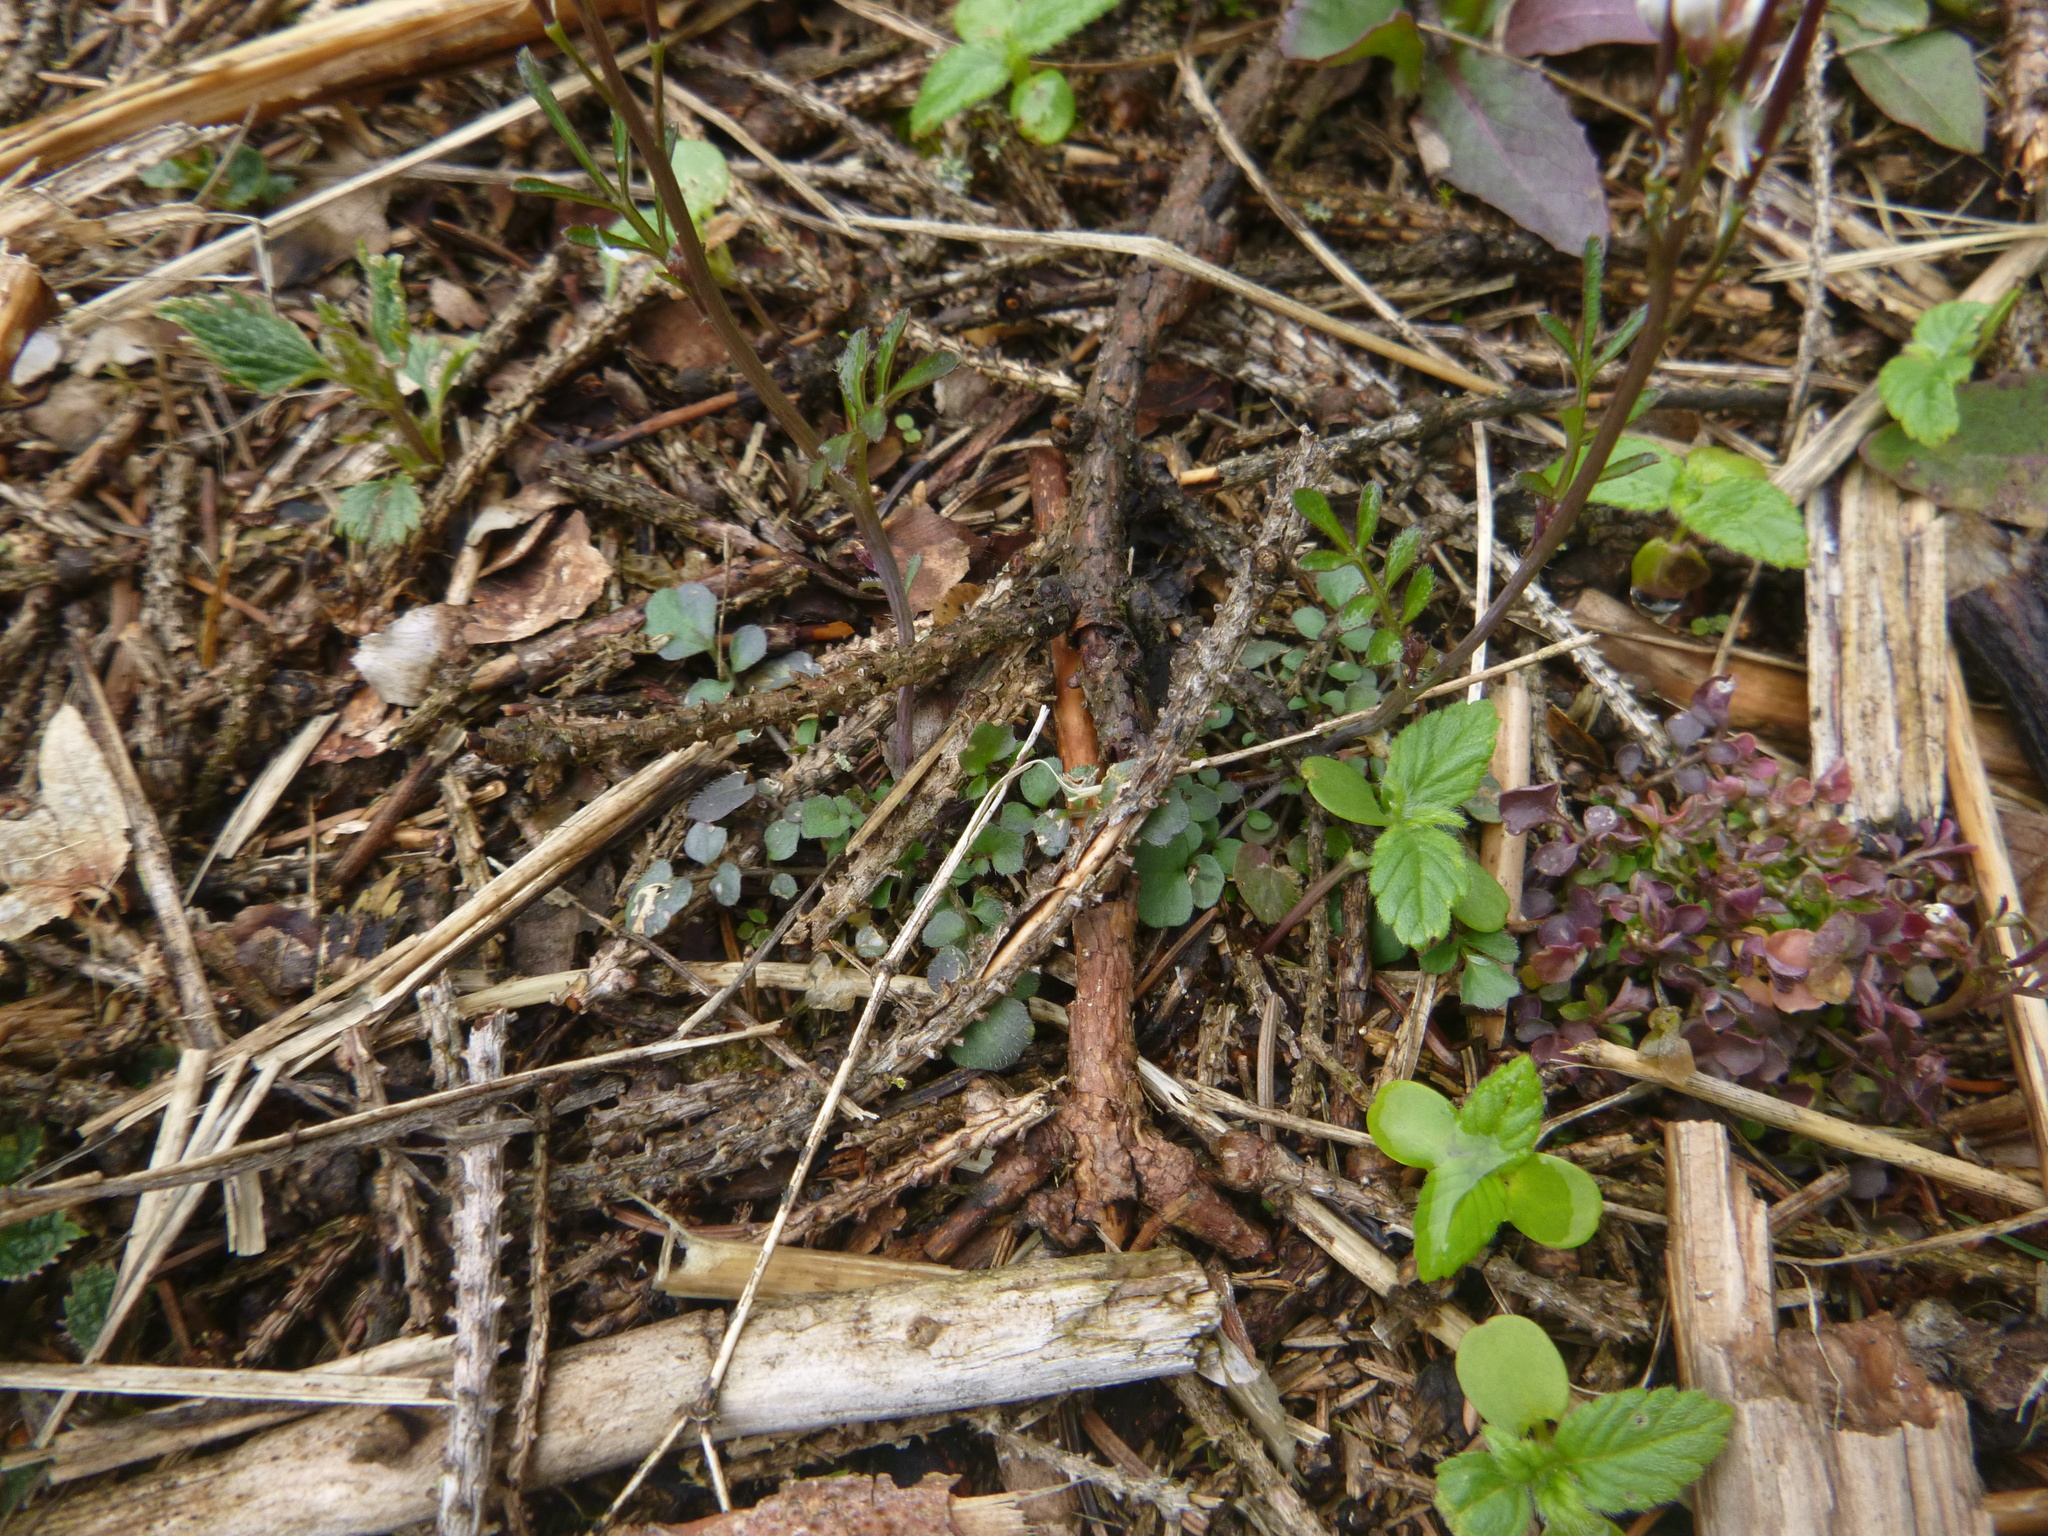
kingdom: Plantae
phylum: Tracheophyta
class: Magnoliopsida
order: Brassicales
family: Brassicaceae
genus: Cardamine
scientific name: Cardamine hirsuta
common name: Hairy bittercress
